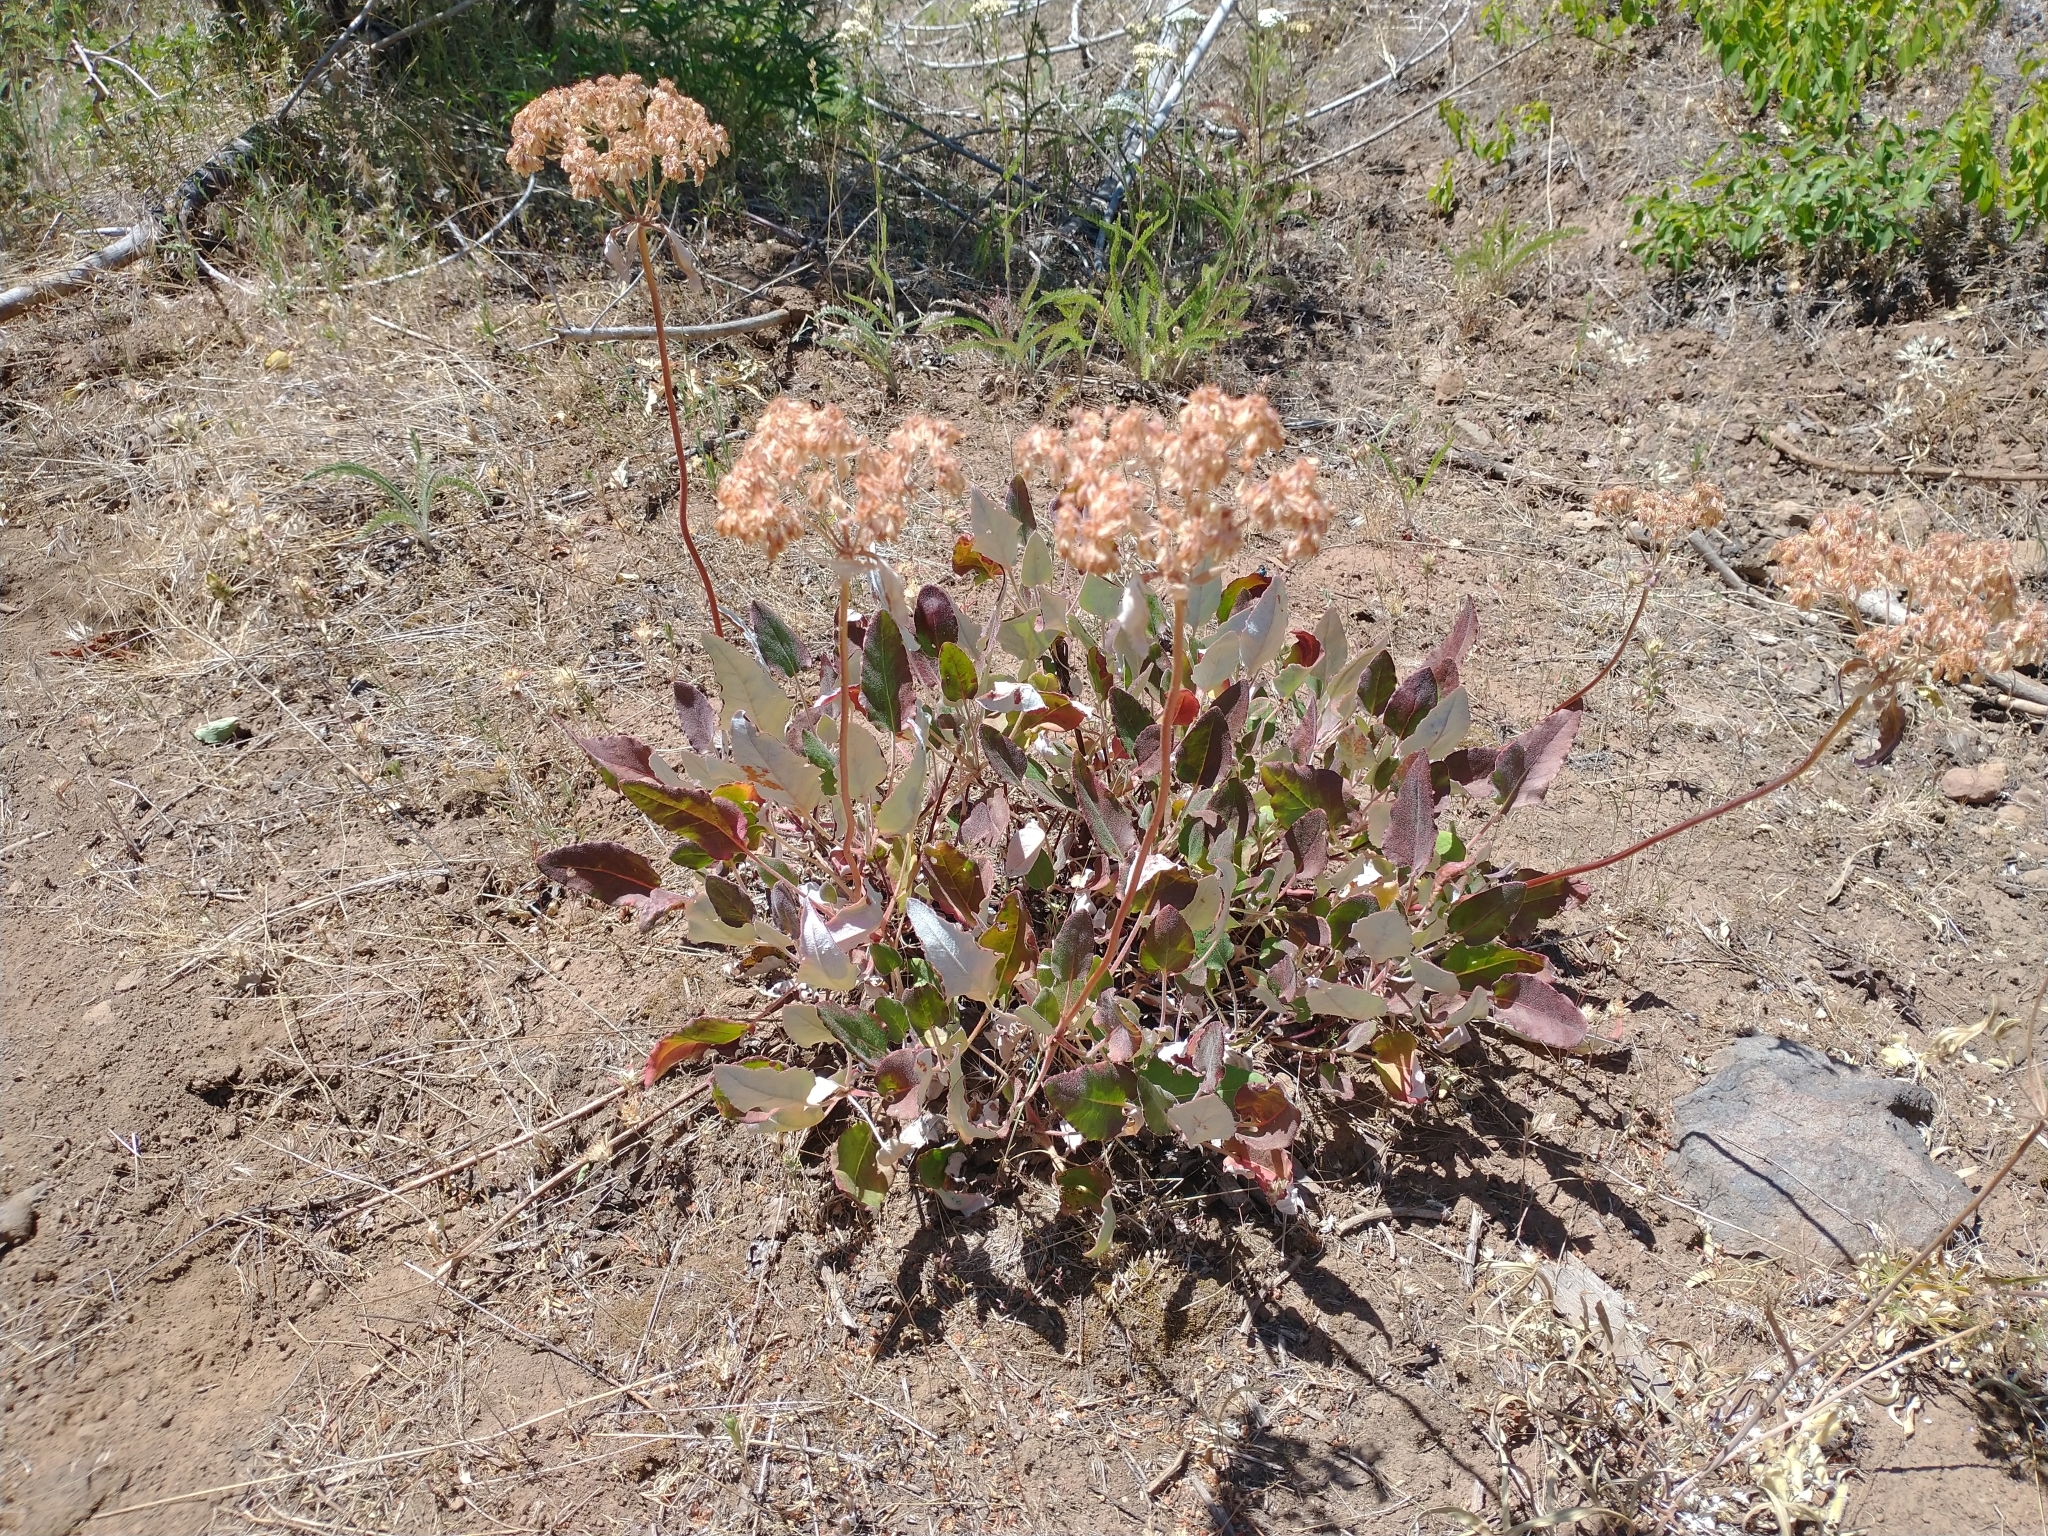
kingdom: Plantae
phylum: Tracheophyta
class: Magnoliopsida
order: Caryophyllales
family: Polygonaceae
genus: Eriogonum
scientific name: Eriogonum compositum
